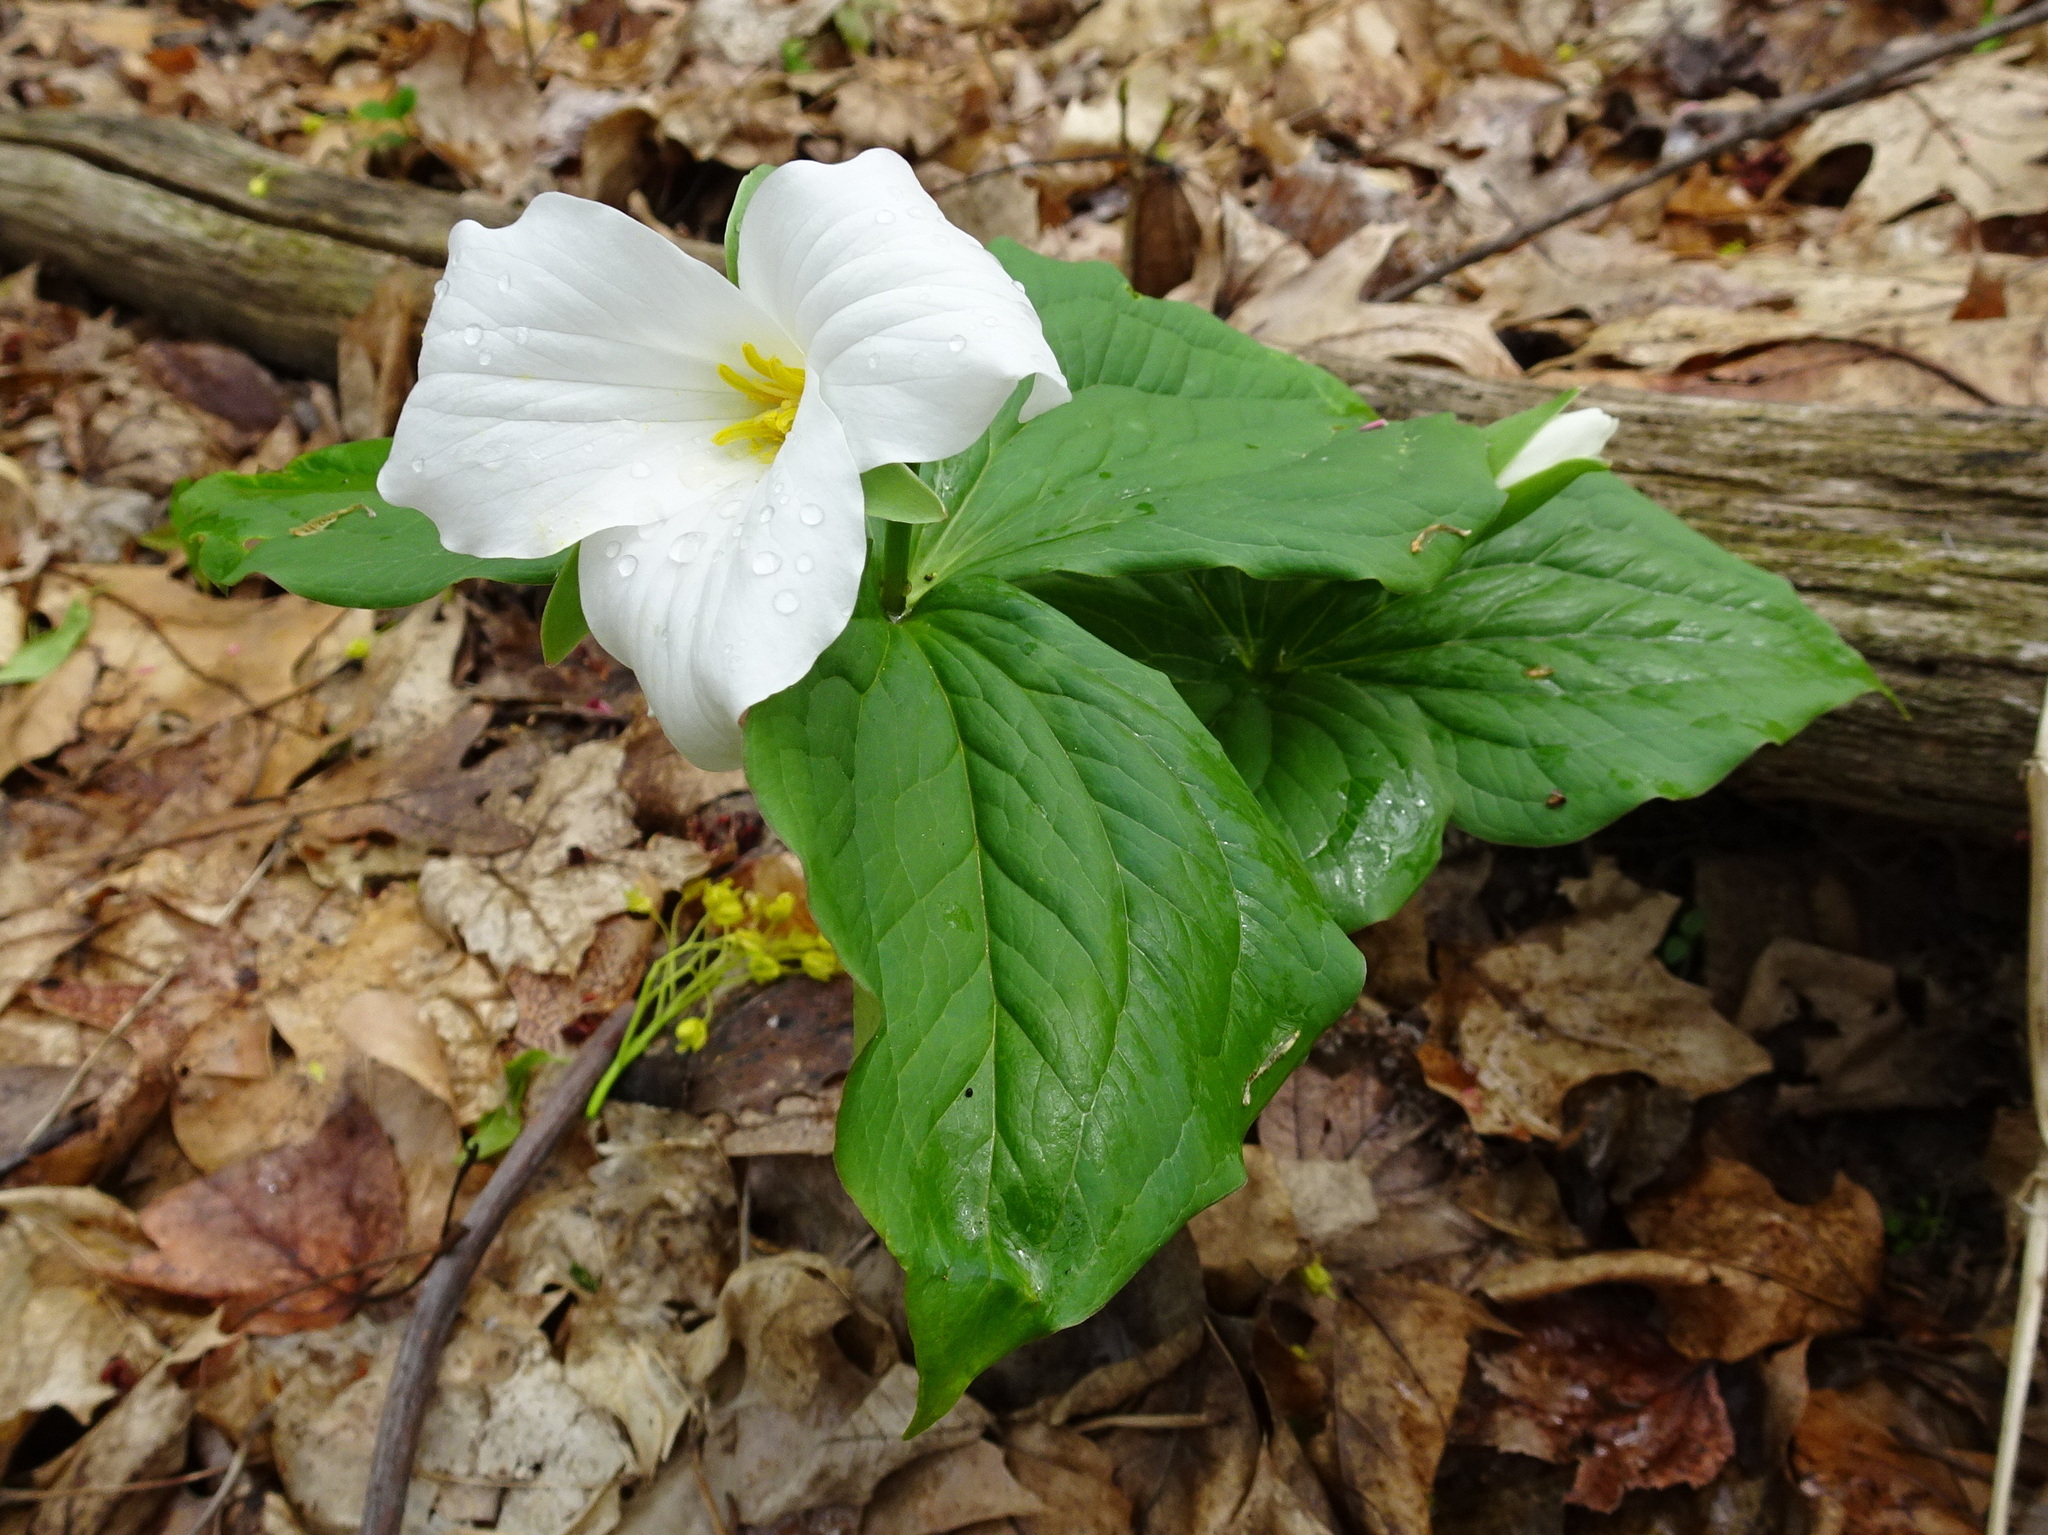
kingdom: Plantae
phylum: Tracheophyta
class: Liliopsida
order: Liliales
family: Melanthiaceae
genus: Trillium
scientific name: Trillium grandiflorum
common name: Great white trillium
